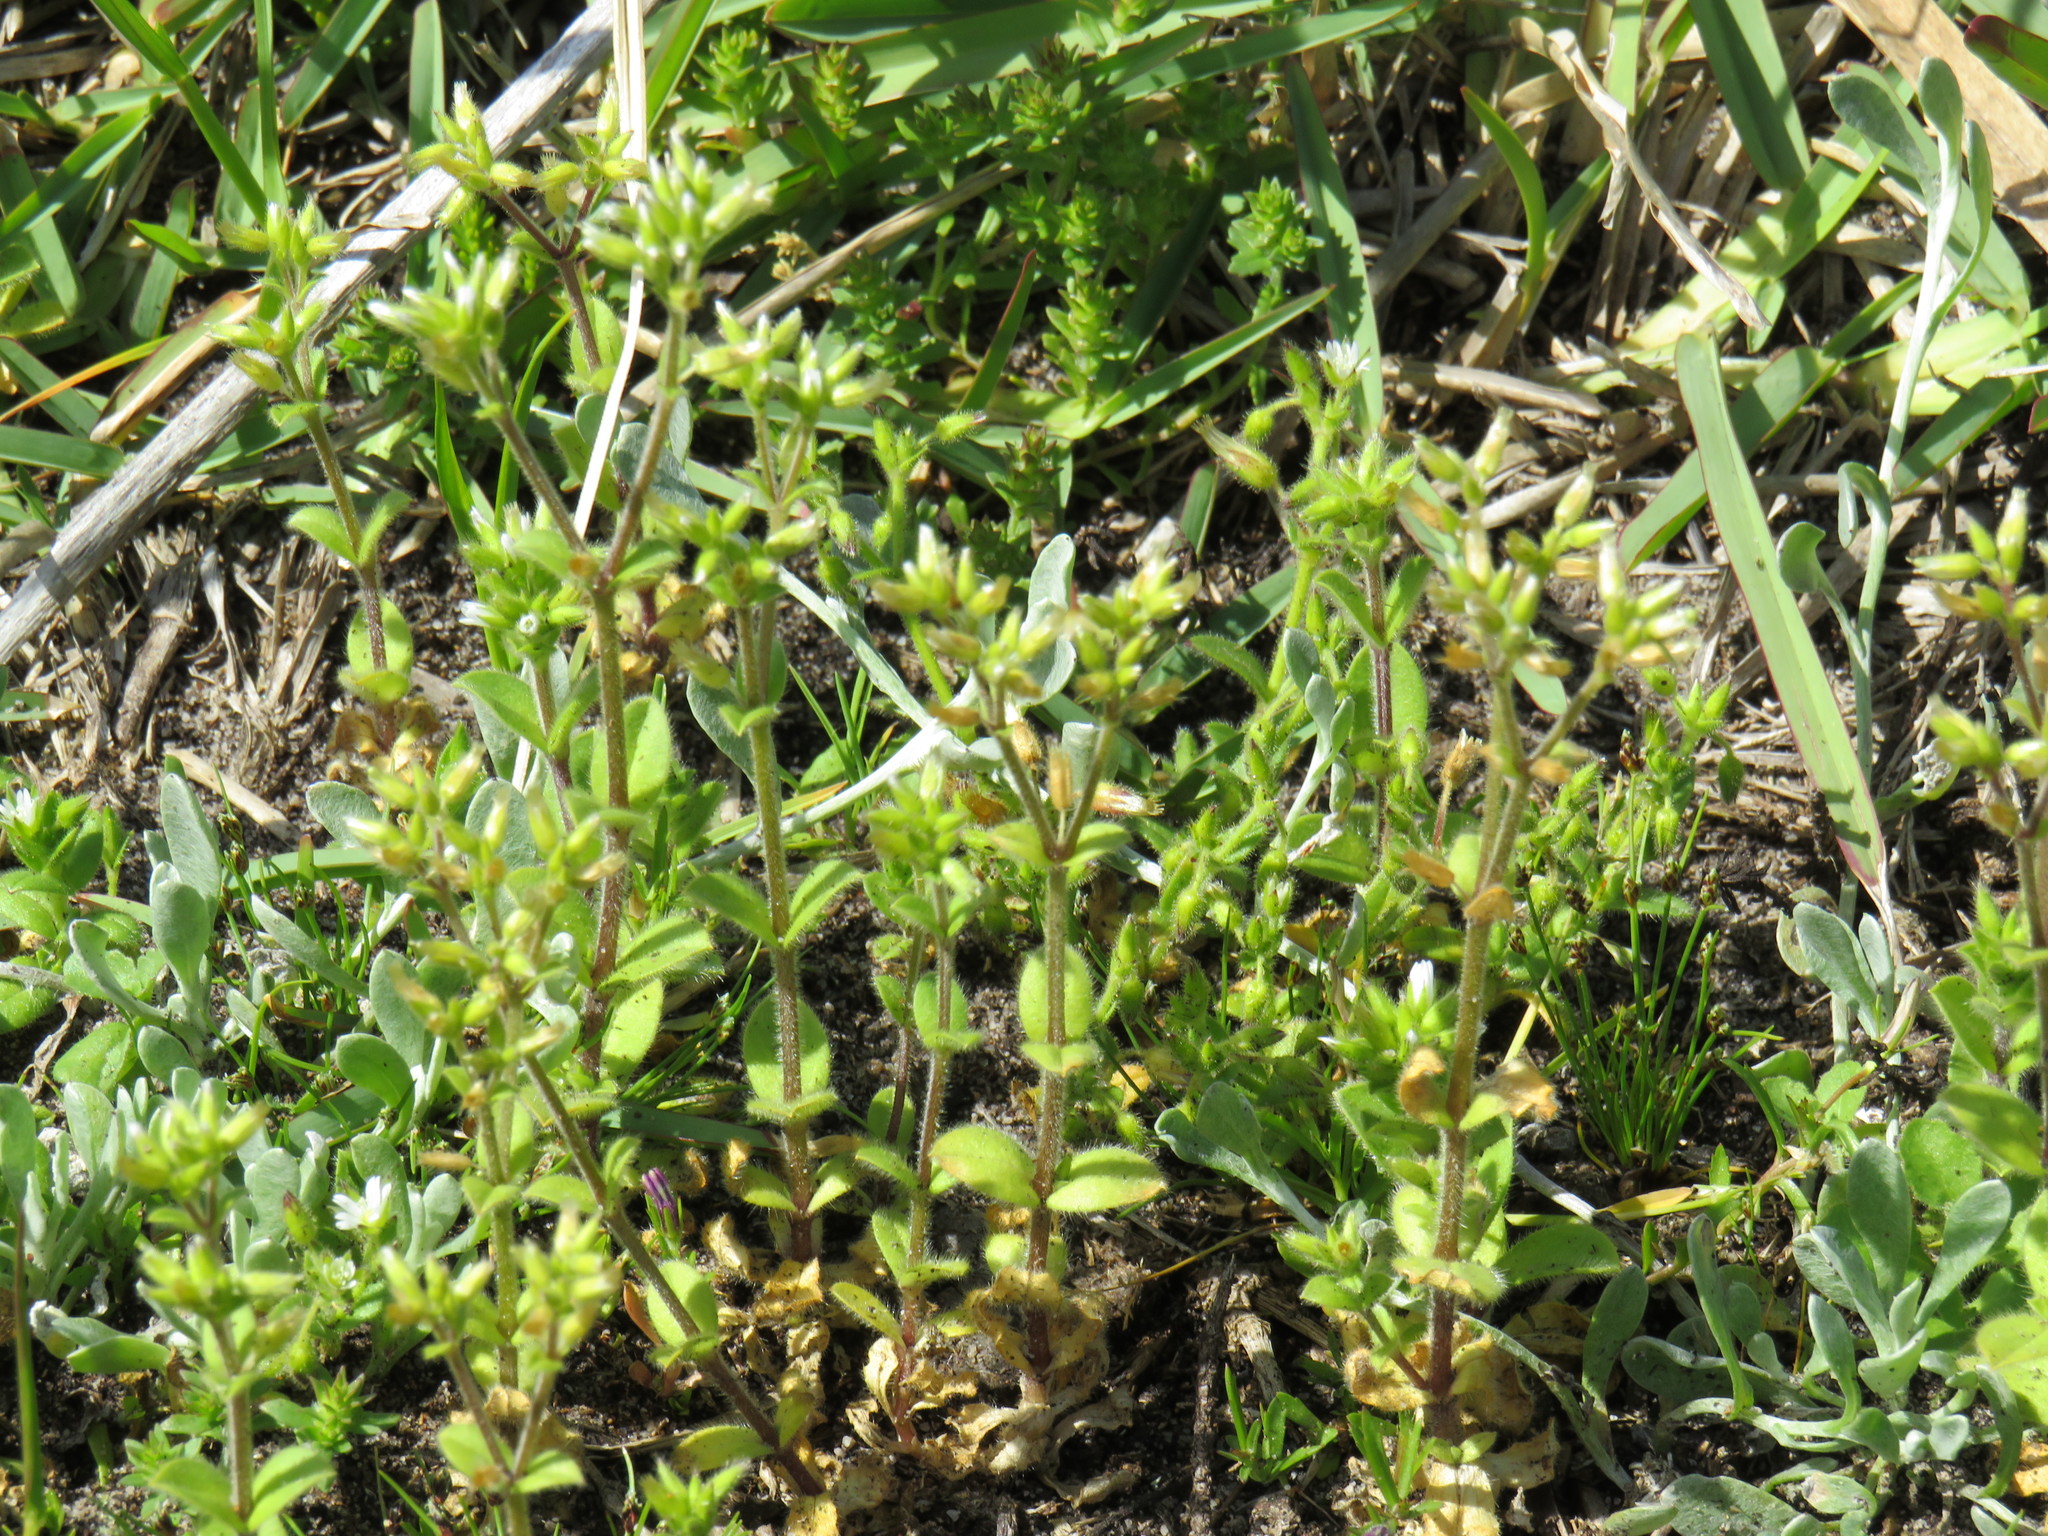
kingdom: Plantae
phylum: Tracheophyta
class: Magnoliopsida
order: Caryophyllales
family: Caryophyllaceae
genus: Cerastium
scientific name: Cerastium capense
